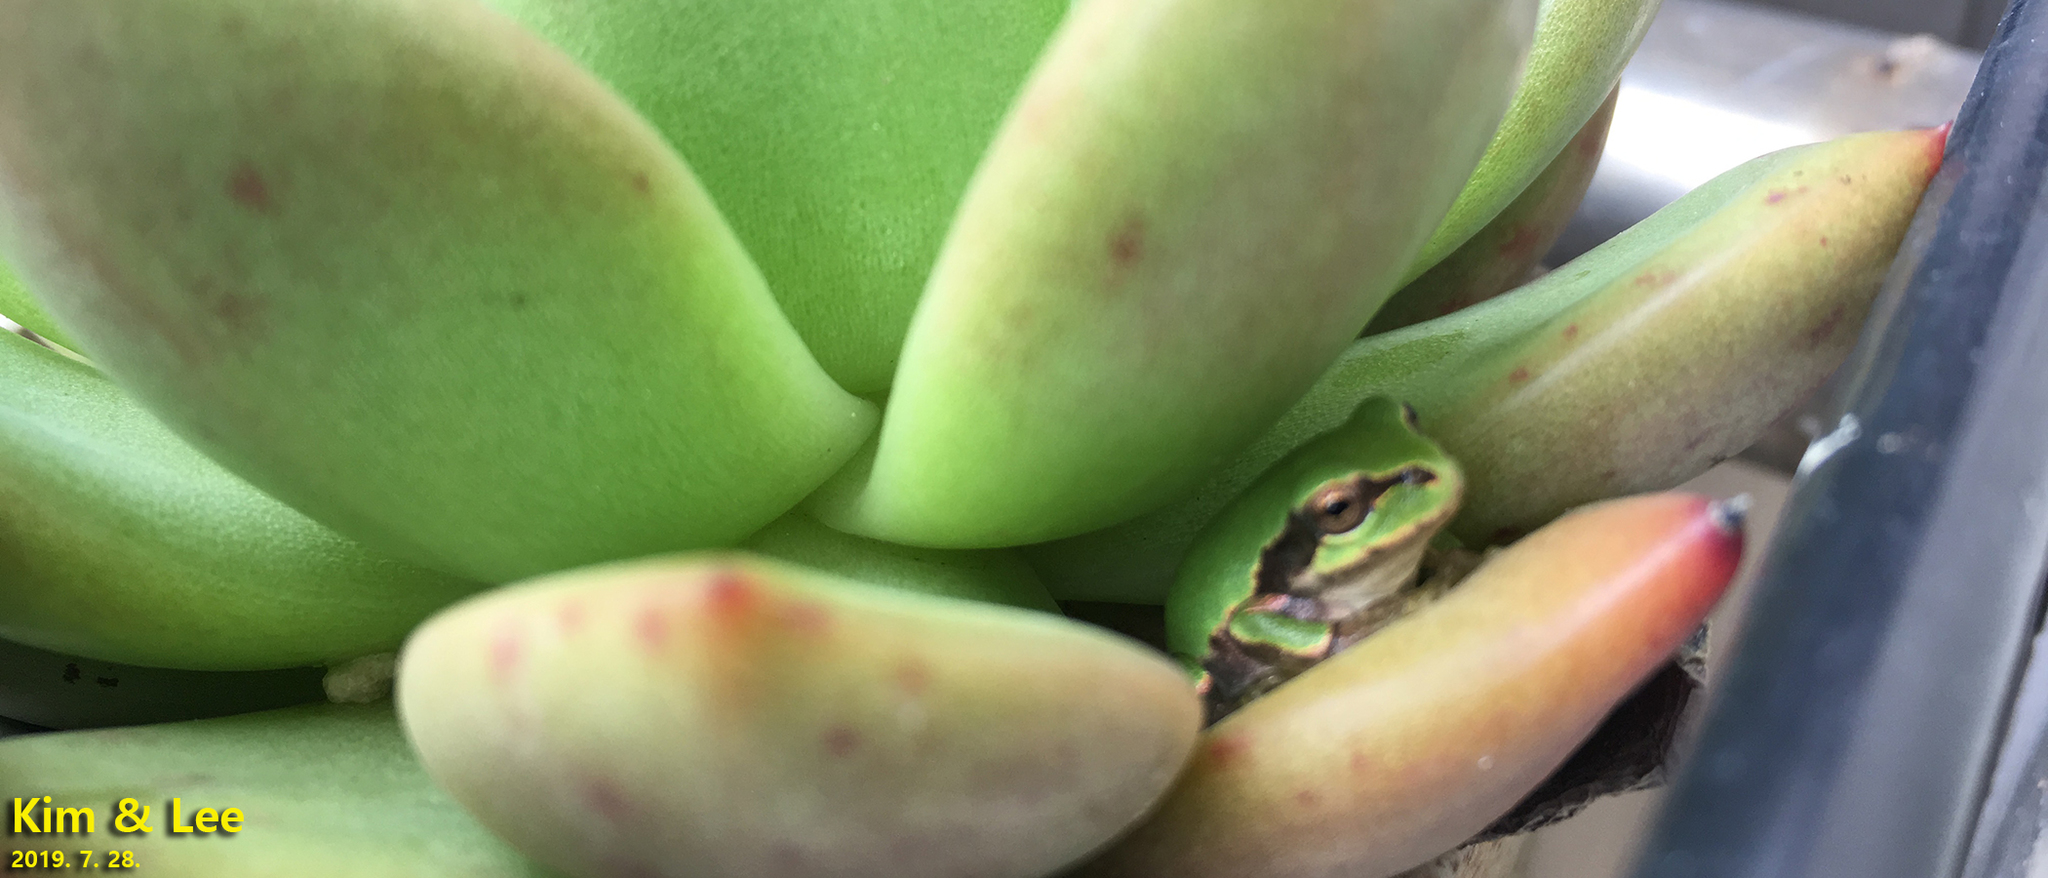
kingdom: Animalia
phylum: Chordata
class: Amphibia
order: Anura
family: Hylidae
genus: Dryophytes
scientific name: Dryophytes japonicus
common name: Japanese treefrog
